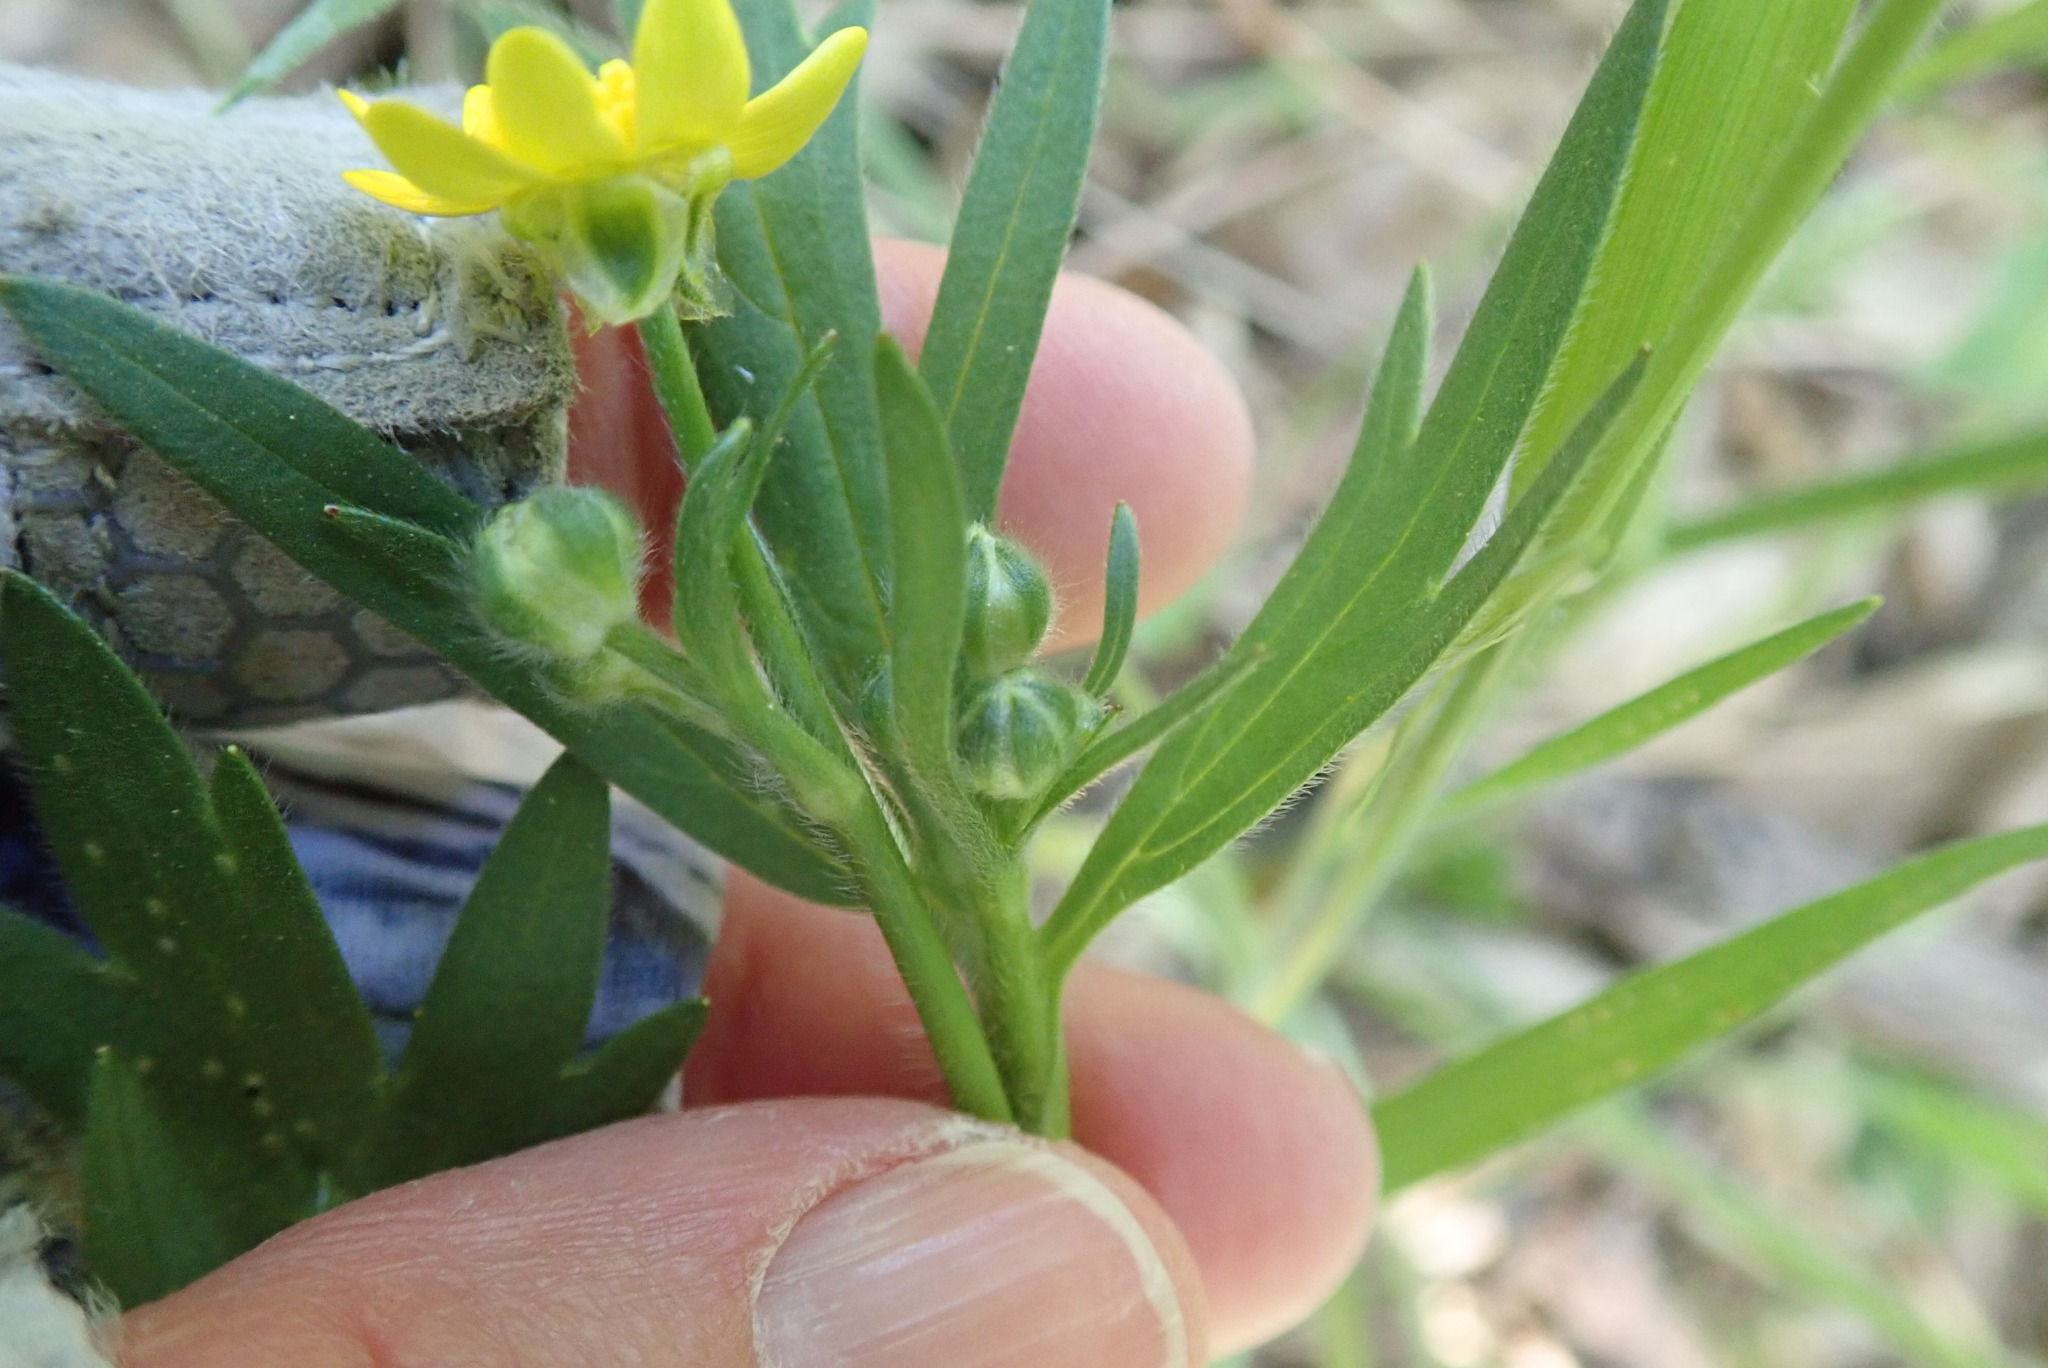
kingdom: Plantae
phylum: Tracheophyta
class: Magnoliopsida
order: Ranunculales
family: Ranunculaceae
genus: Ranunculus
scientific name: Ranunculus californicus
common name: California buttercup
